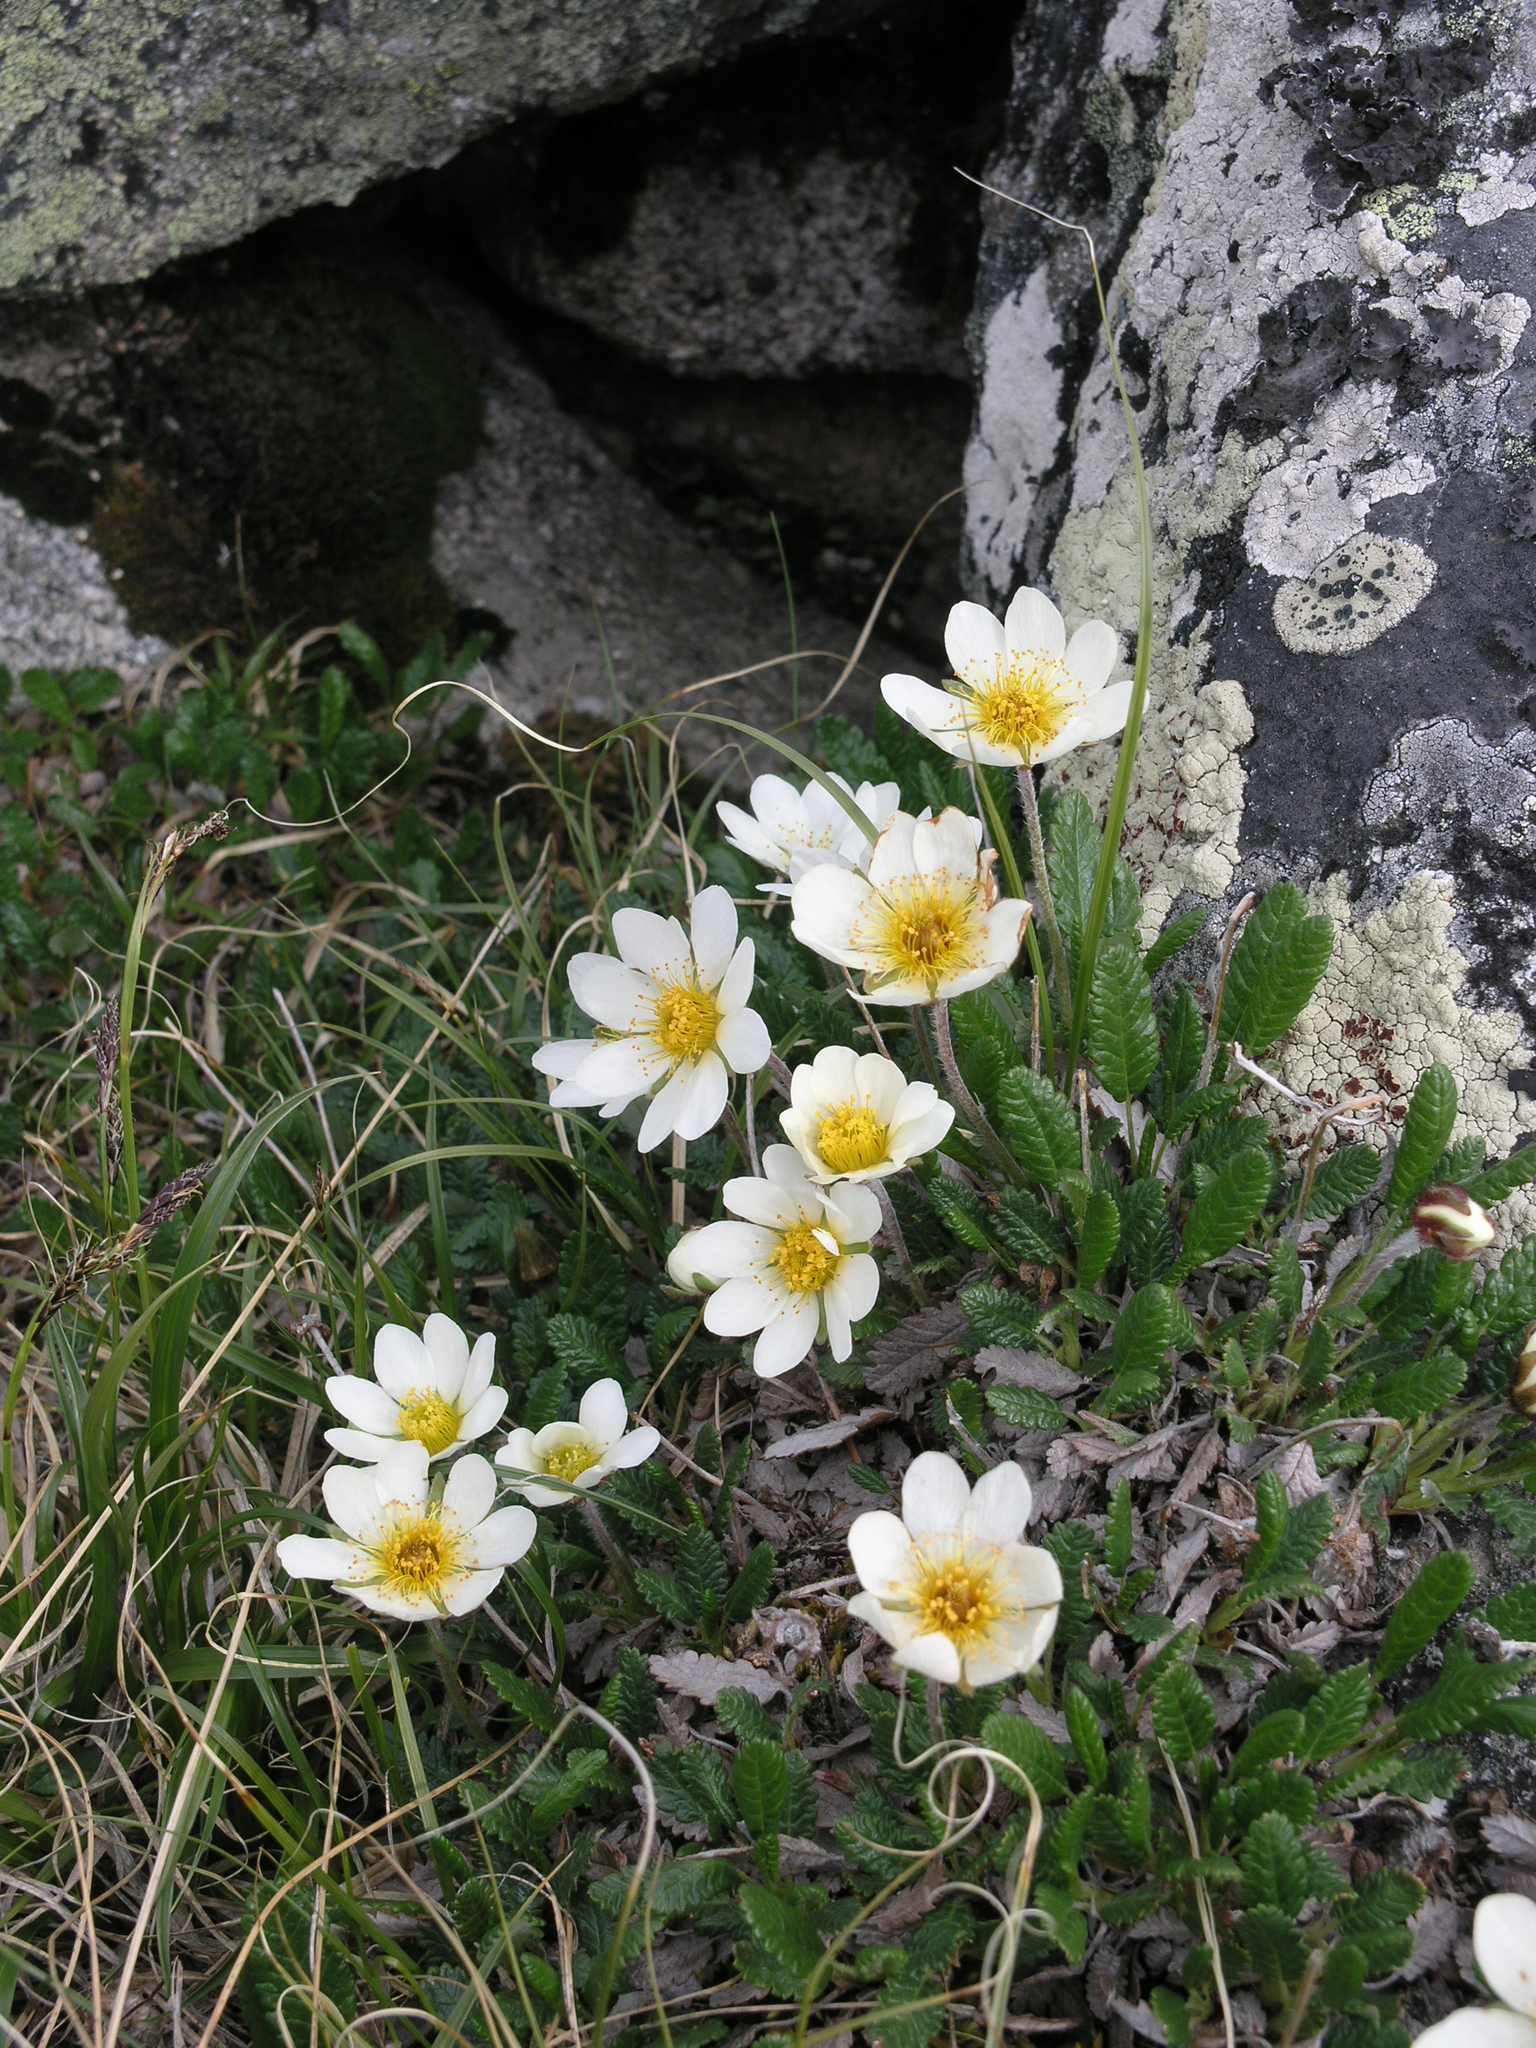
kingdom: Plantae
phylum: Tracheophyta
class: Magnoliopsida
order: Rosales
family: Rosaceae
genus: Dryas
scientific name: Dryas octopetala
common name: Eight-petal mountain-avens
